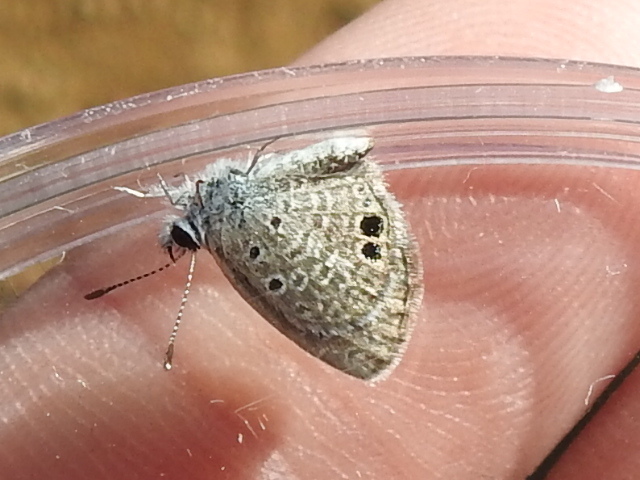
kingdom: Animalia
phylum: Arthropoda
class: Insecta
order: Lepidoptera
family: Lycaenidae
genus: Hemiargus
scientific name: Hemiargus ceraunus
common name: Ceraunus blue
